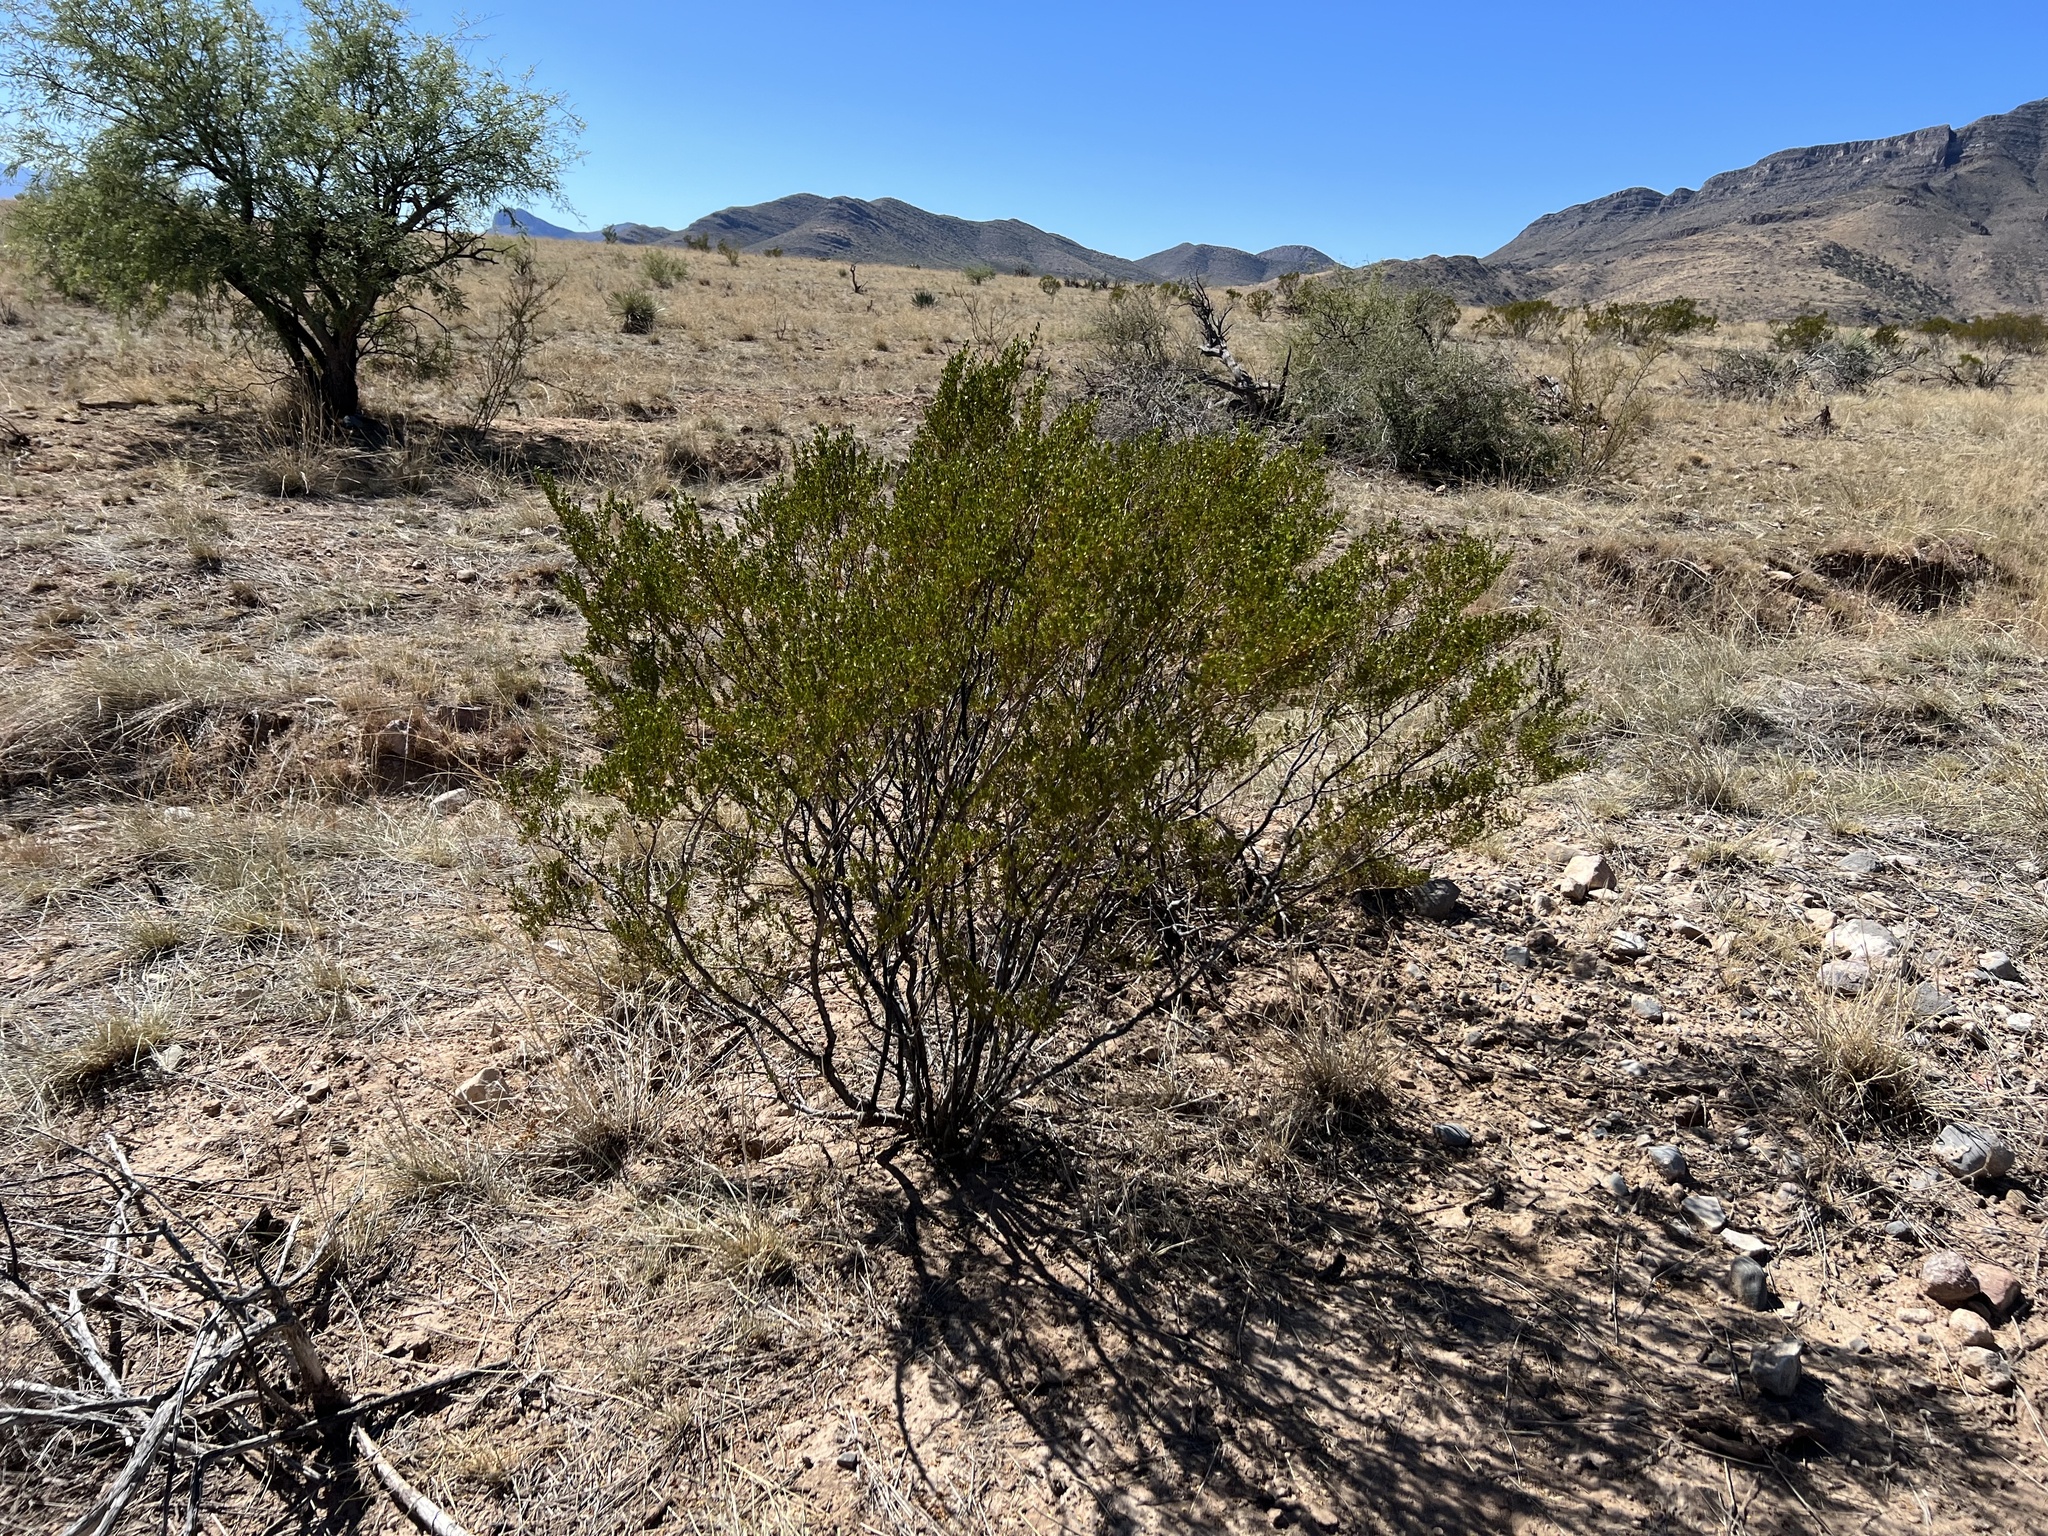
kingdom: Plantae
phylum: Tracheophyta
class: Magnoliopsida
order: Zygophyllales
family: Zygophyllaceae
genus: Larrea
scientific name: Larrea tridentata
